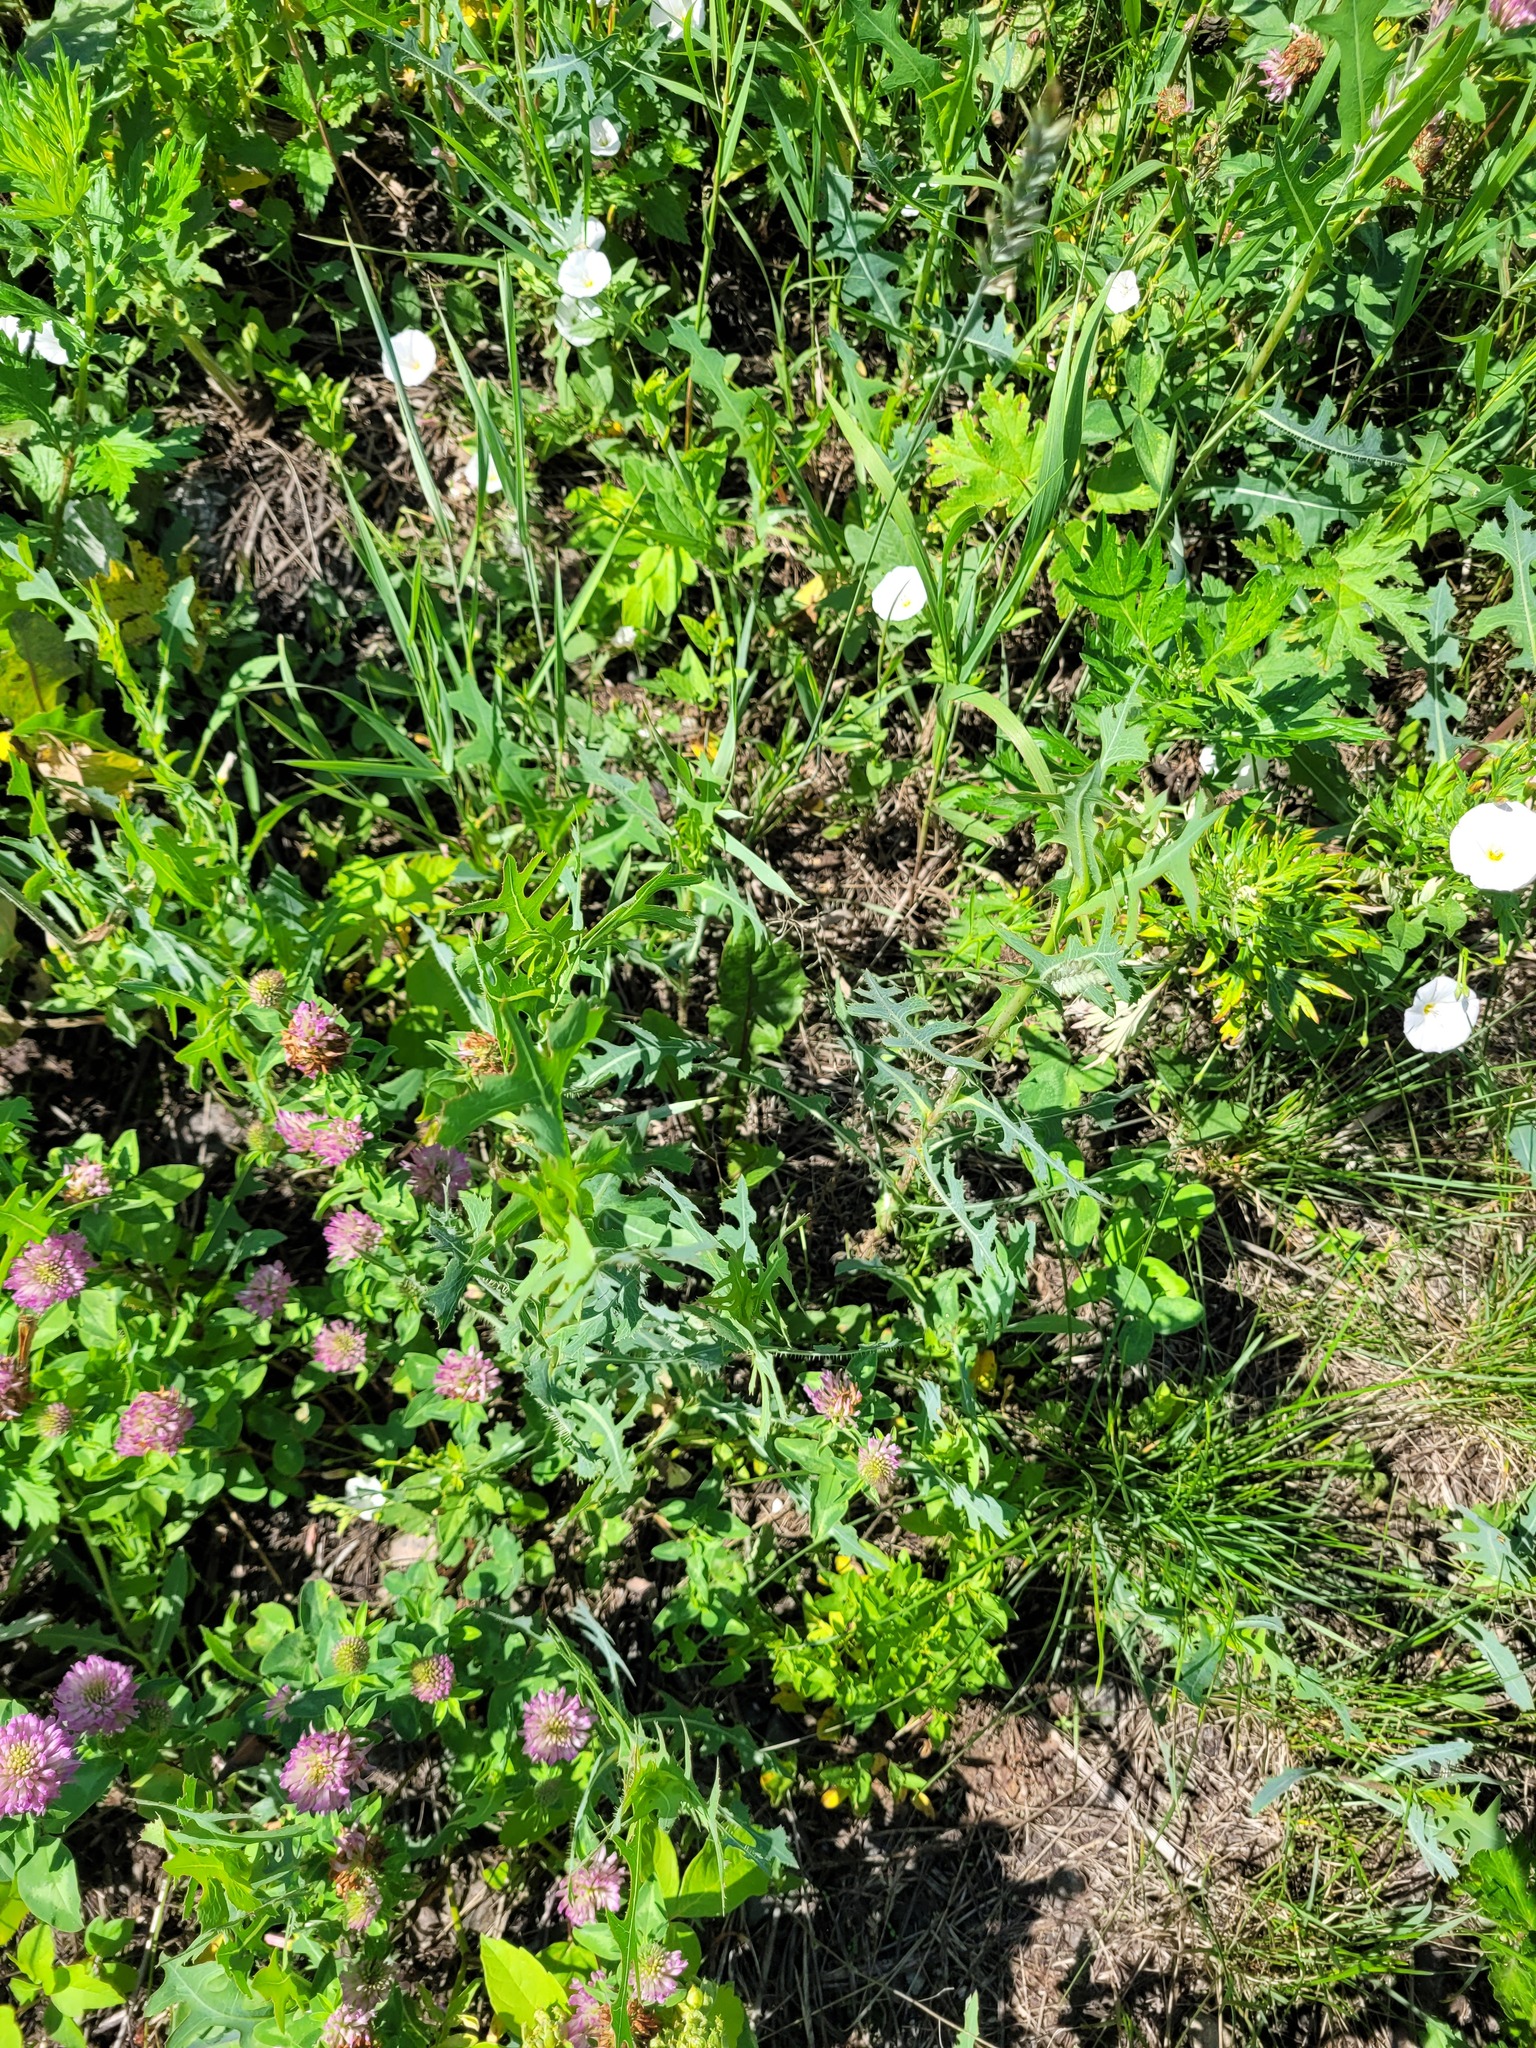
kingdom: Plantae
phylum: Tracheophyta
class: Magnoliopsida
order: Asterales
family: Asteraceae
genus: Lactuca
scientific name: Lactuca serriola
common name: Prickly lettuce
